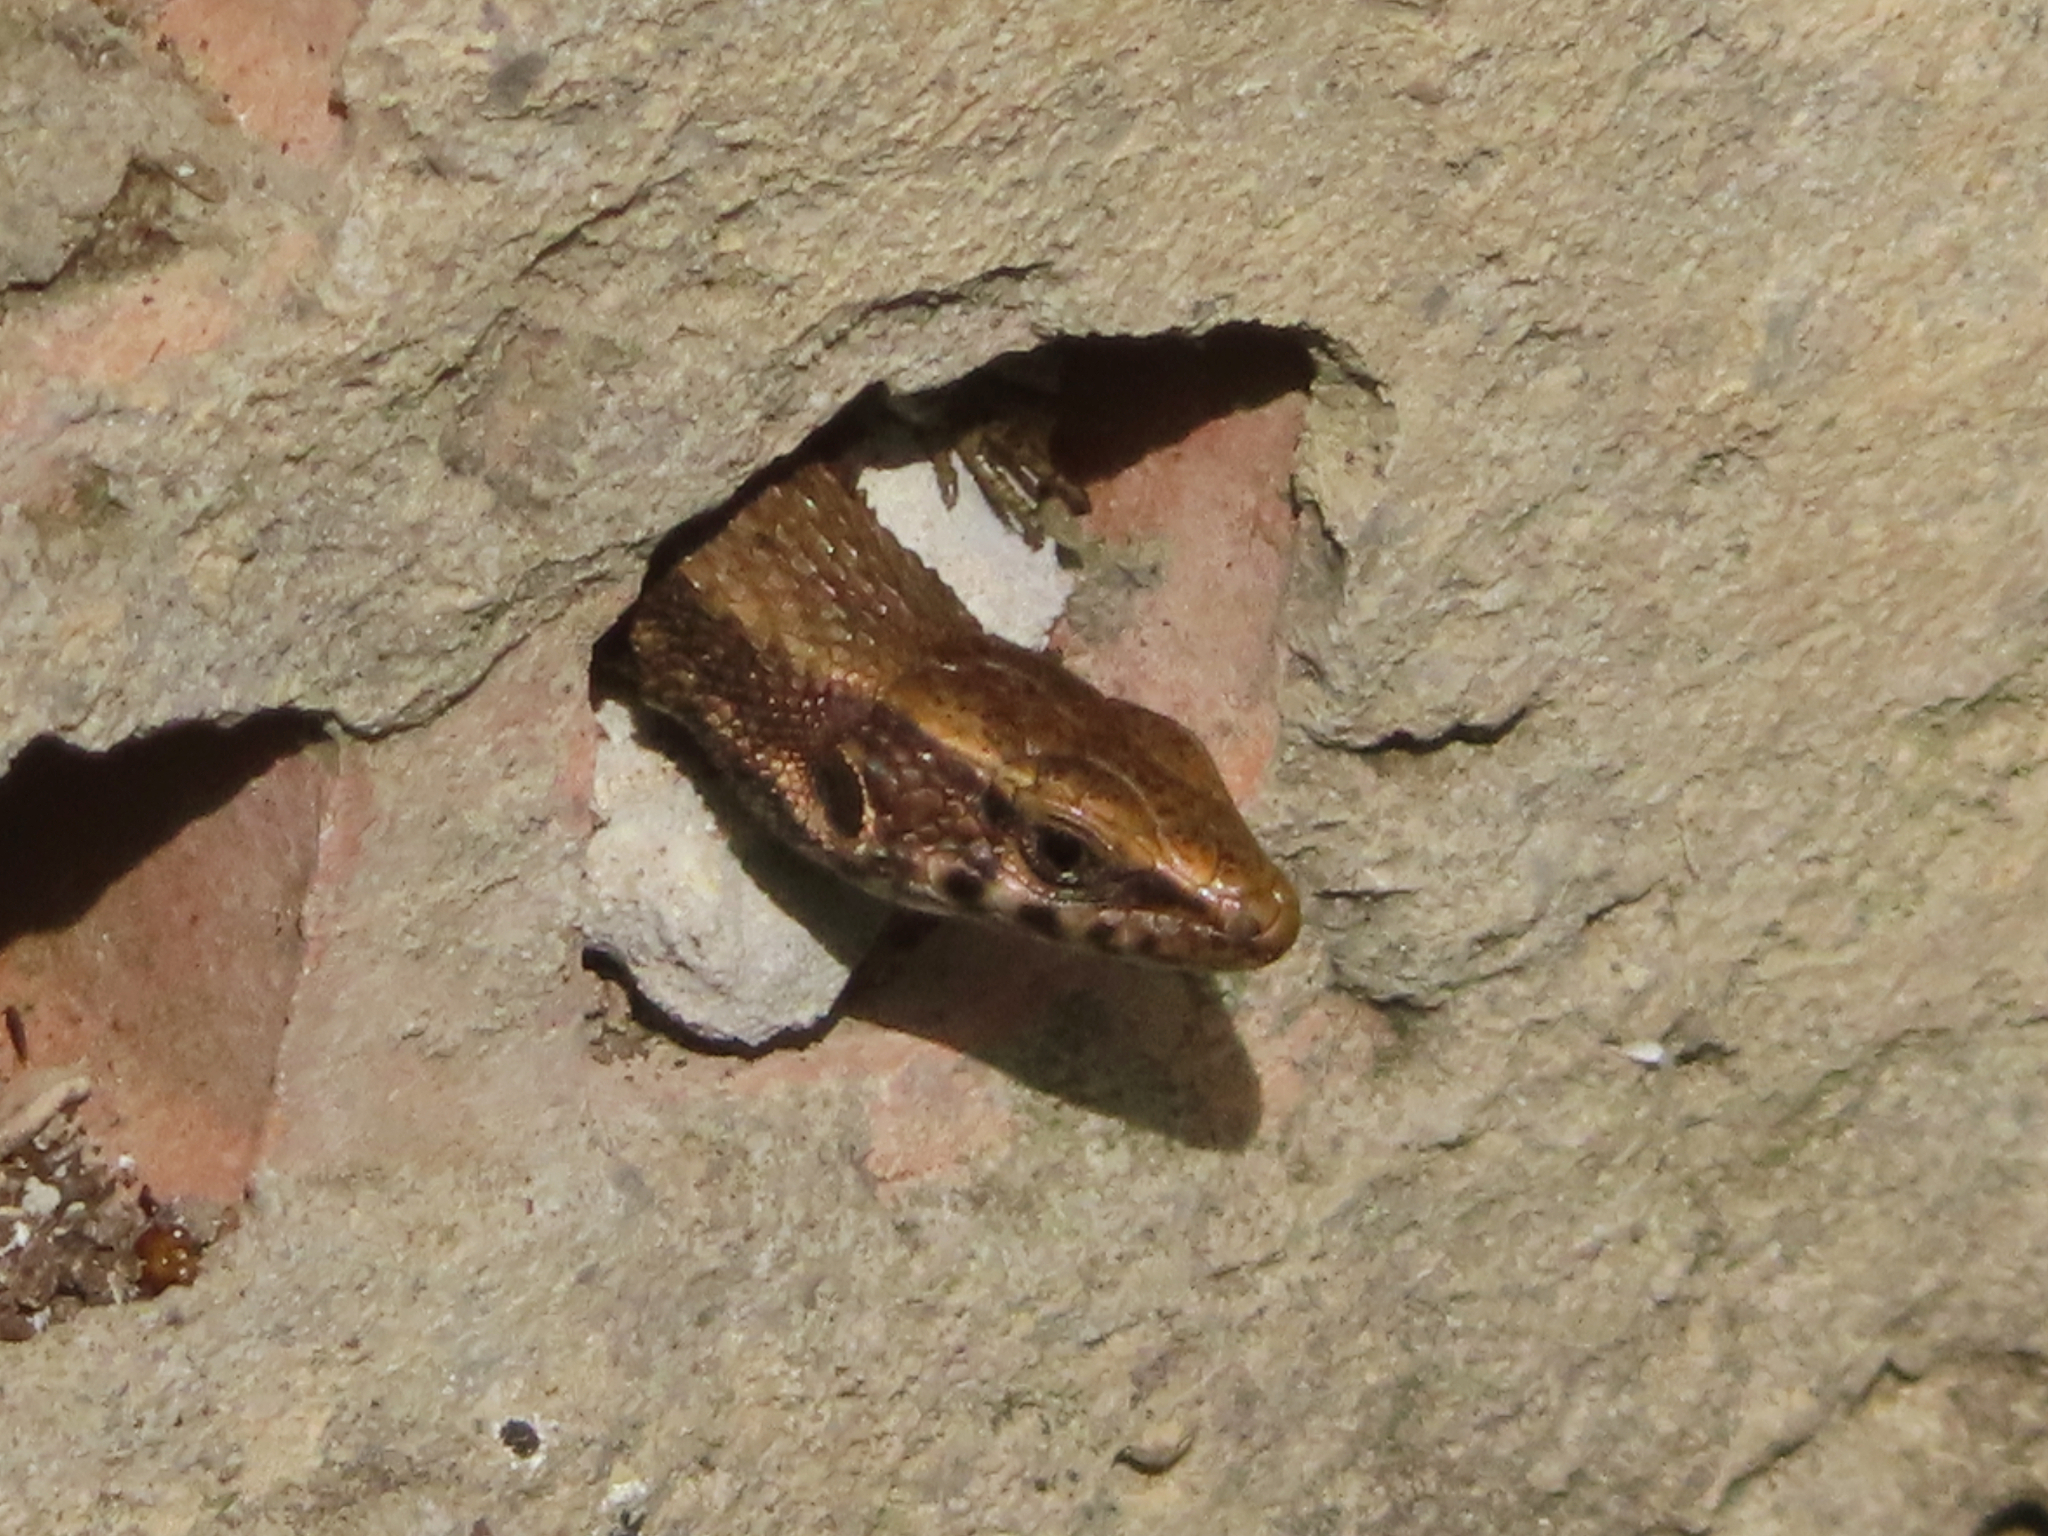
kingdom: Animalia
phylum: Chordata
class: Squamata
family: Lacertidae
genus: Algyroides
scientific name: Algyroides moreoticus
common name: Greek algyroides
